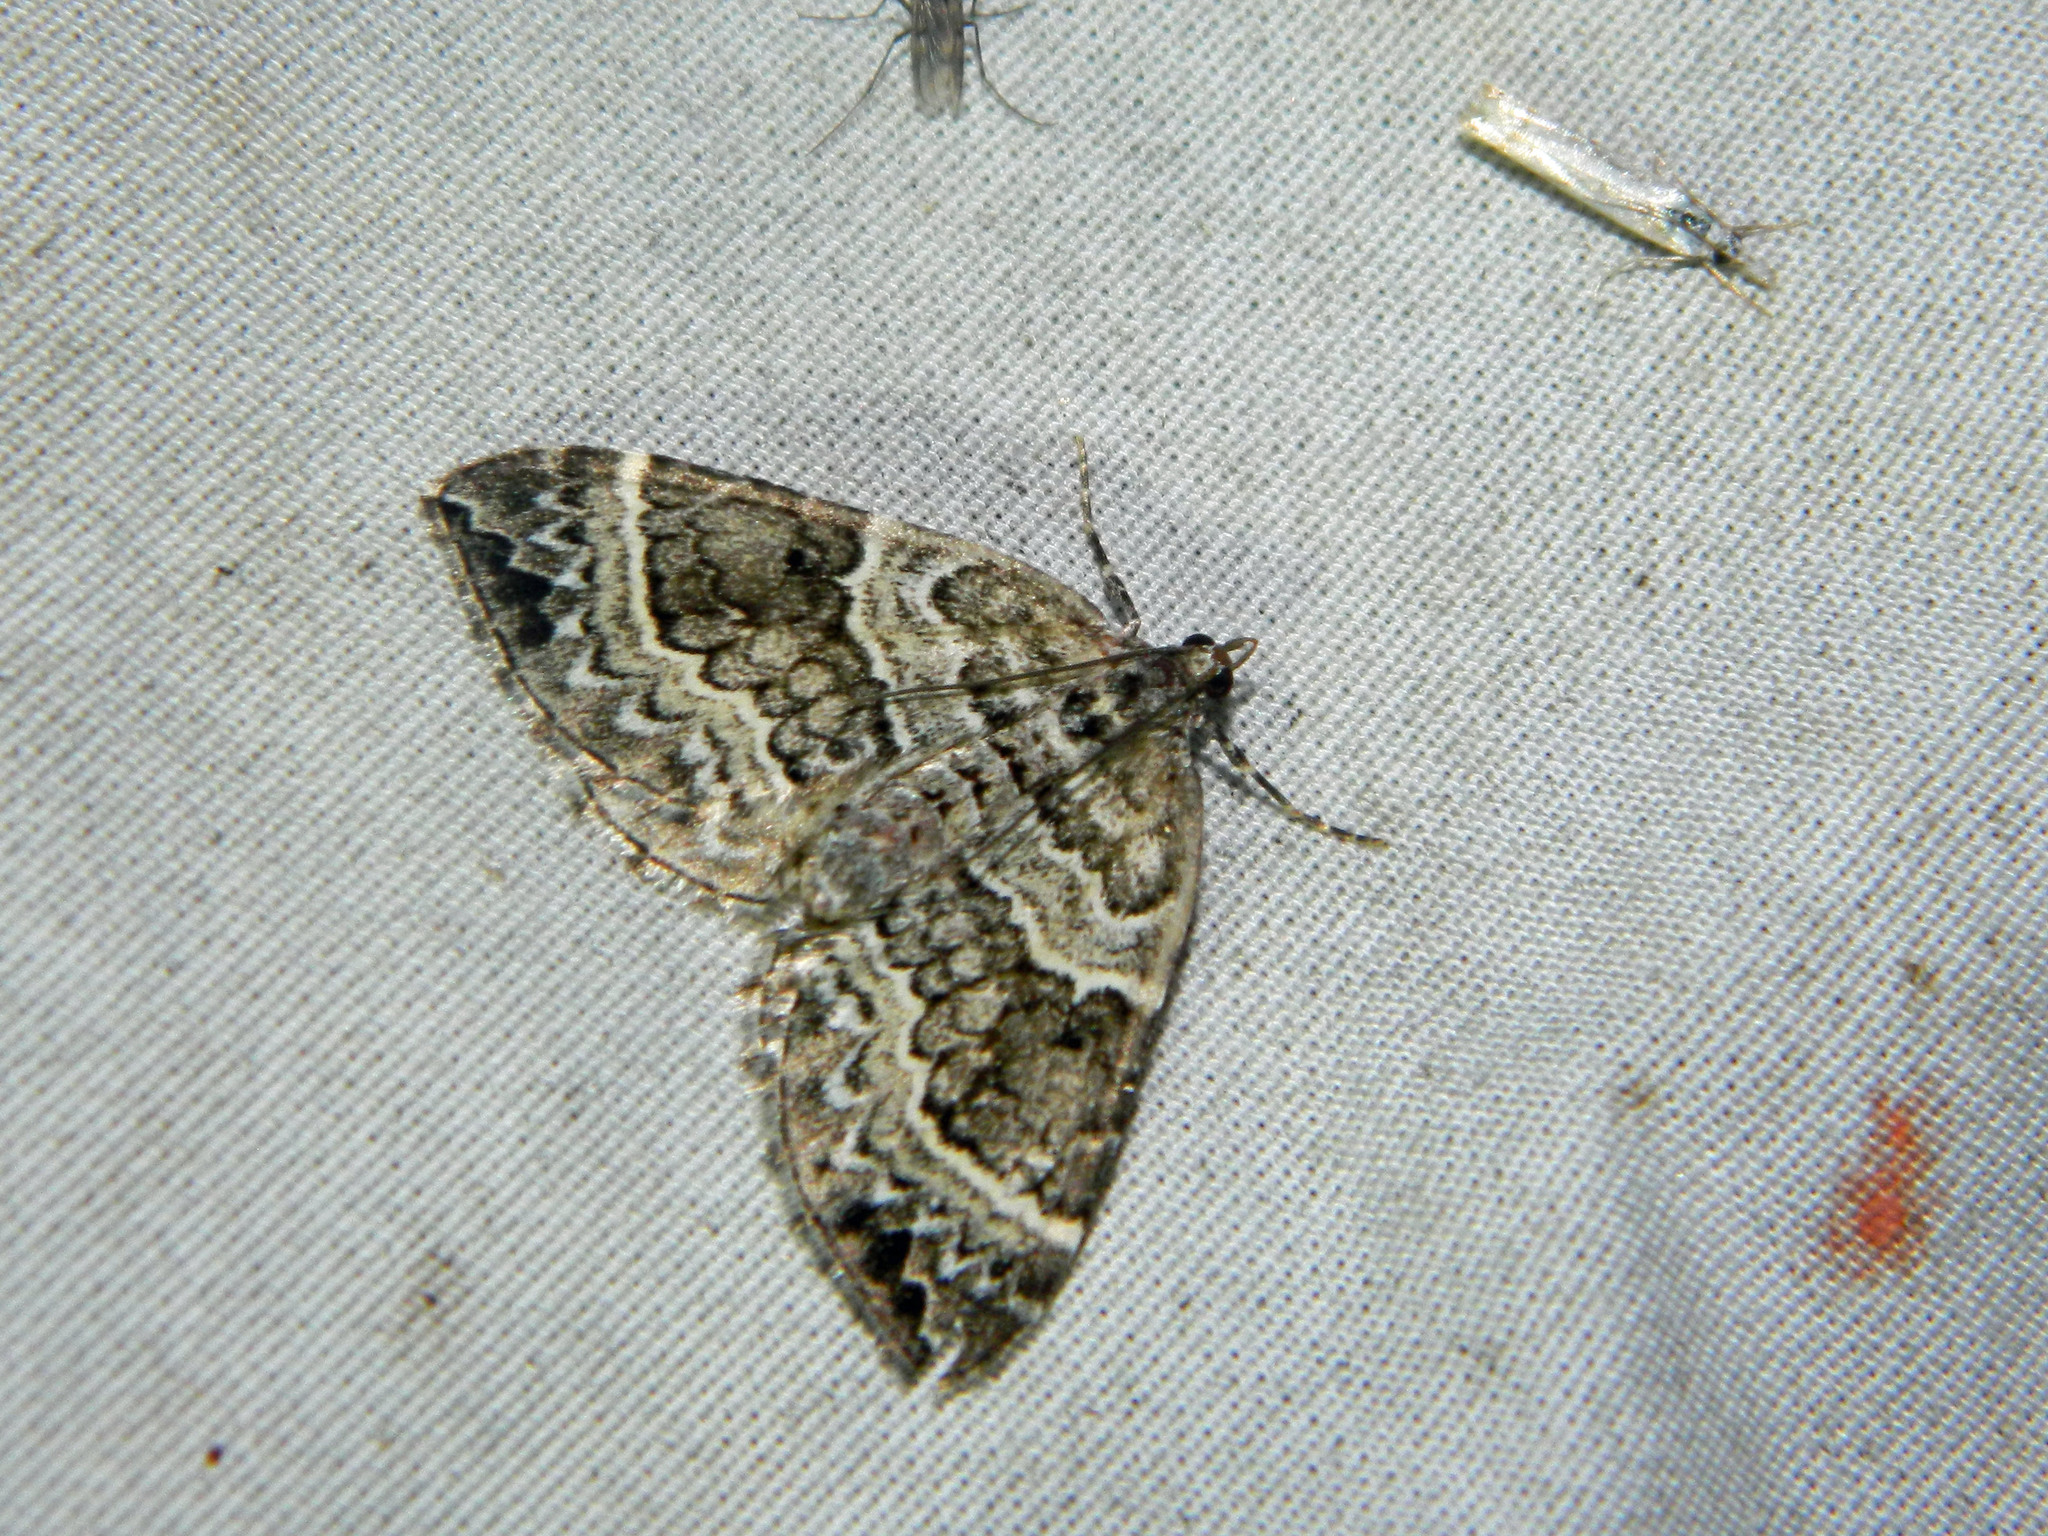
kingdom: Animalia
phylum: Arthropoda
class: Insecta
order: Lepidoptera
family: Geometridae
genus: Eulithis
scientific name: Eulithis explanata
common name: White eulithis
